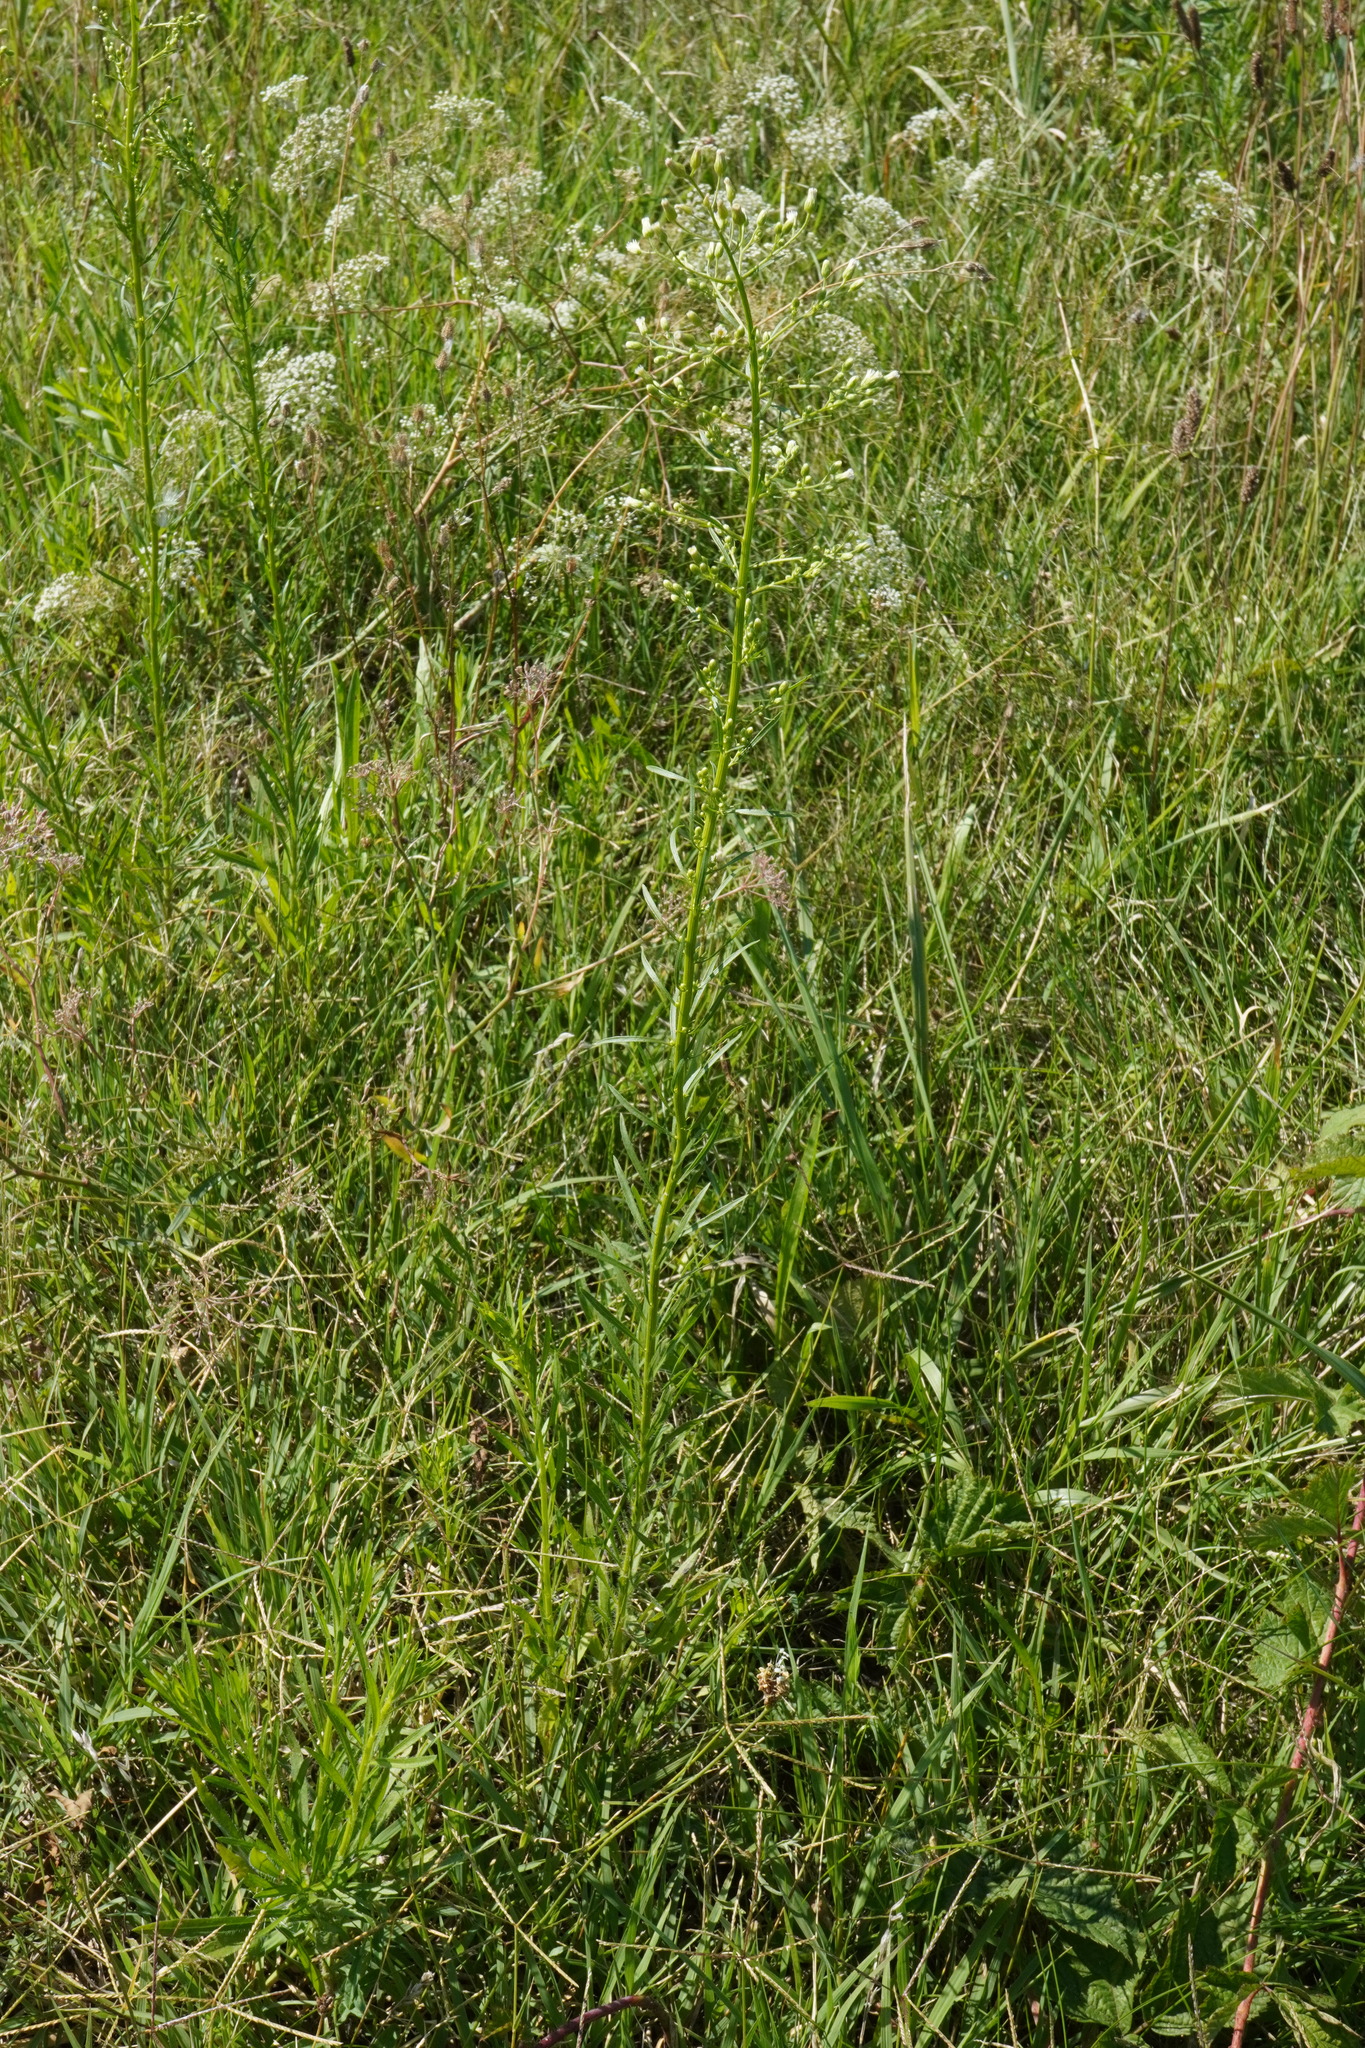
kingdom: Plantae
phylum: Tracheophyta
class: Magnoliopsida
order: Asterales
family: Asteraceae
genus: Erigeron
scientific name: Erigeron canadensis
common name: Canadian fleabane
